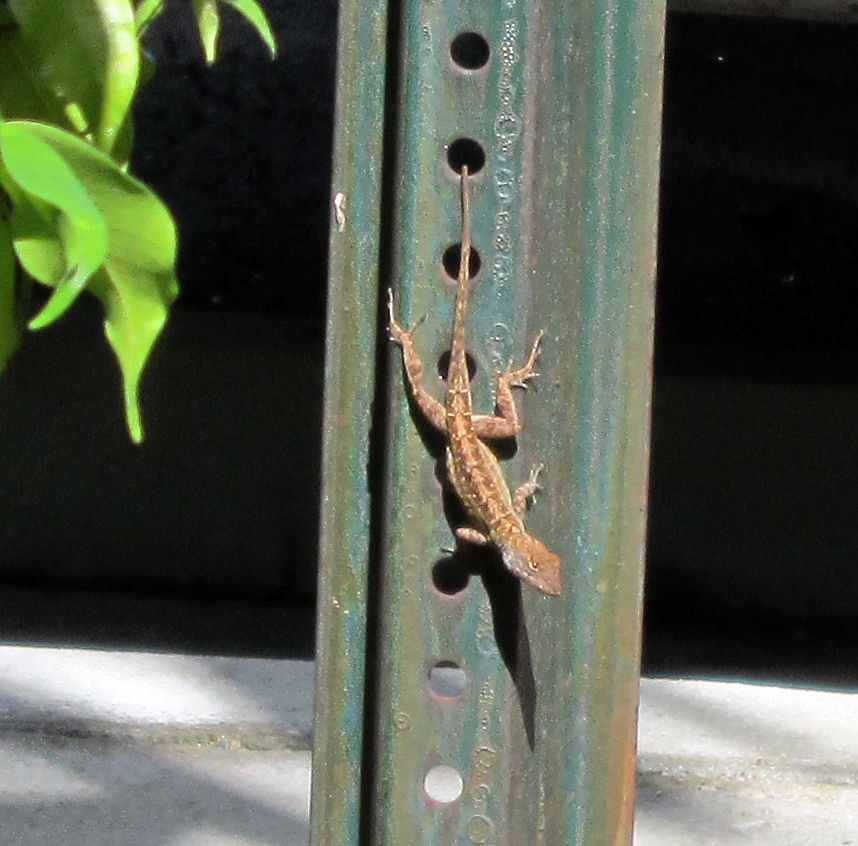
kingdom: Animalia
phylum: Chordata
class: Squamata
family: Dactyloidae
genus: Anolis
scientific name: Anolis sagrei
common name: Brown anole
